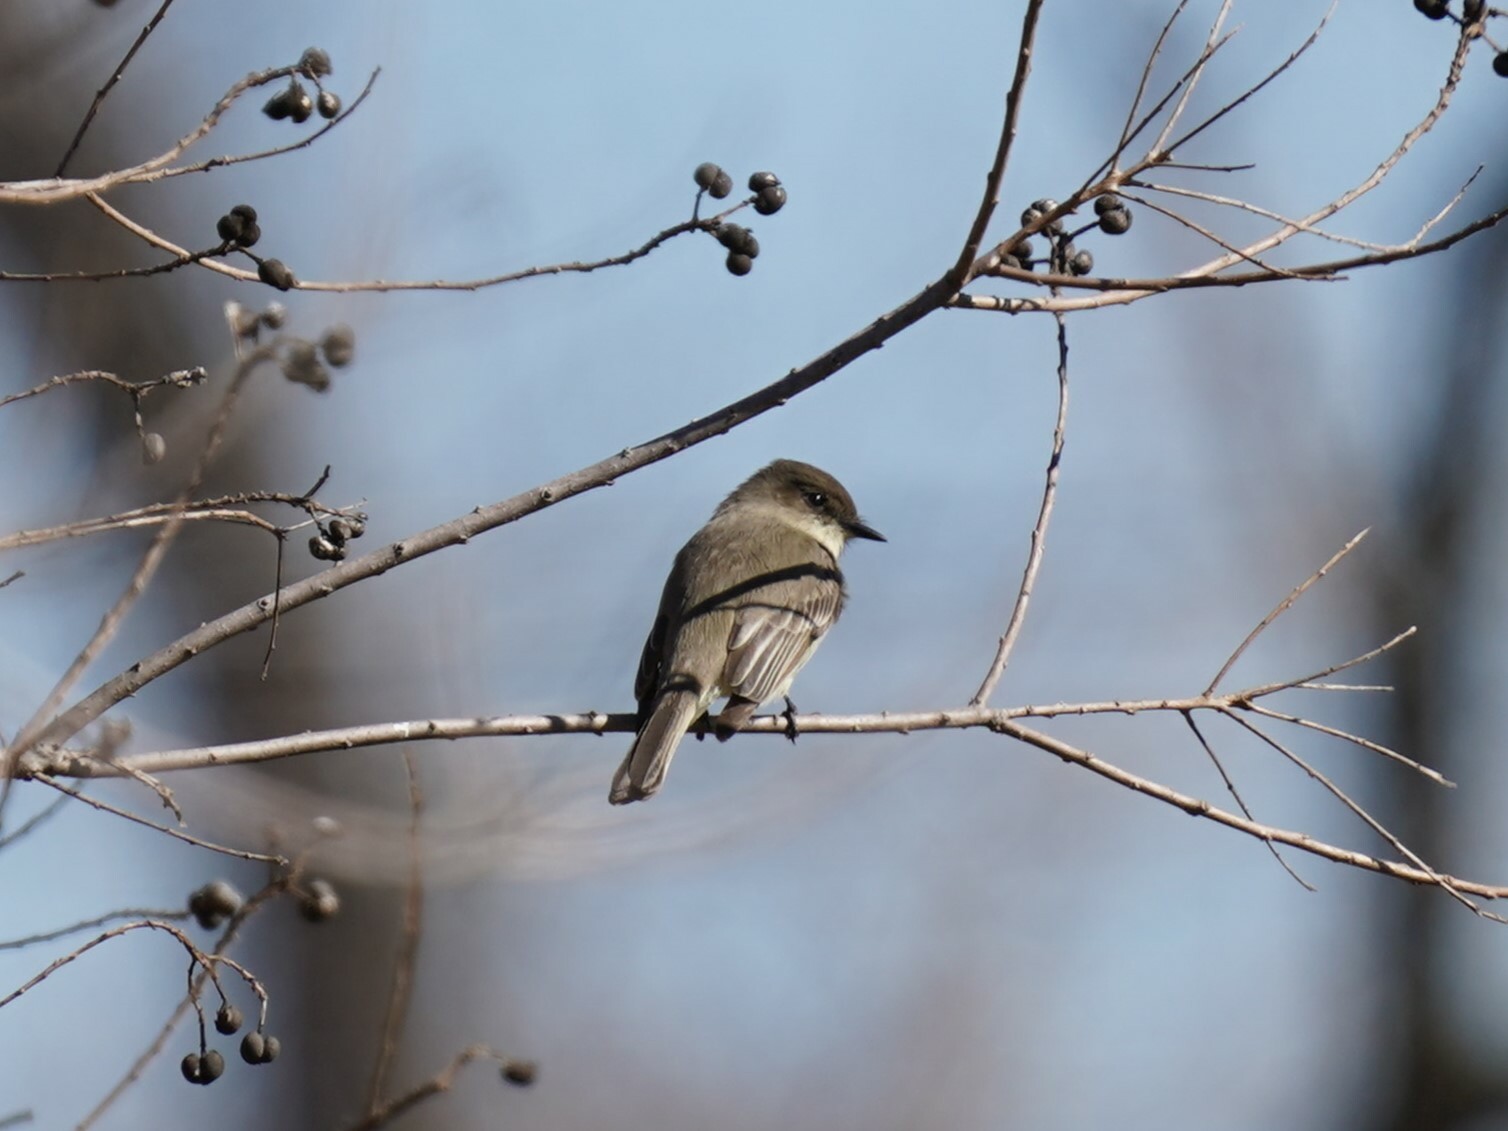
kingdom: Animalia
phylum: Chordata
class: Aves
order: Passeriformes
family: Tyrannidae
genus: Sayornis
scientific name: Sayornis phoebe
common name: Eastern phoebe
